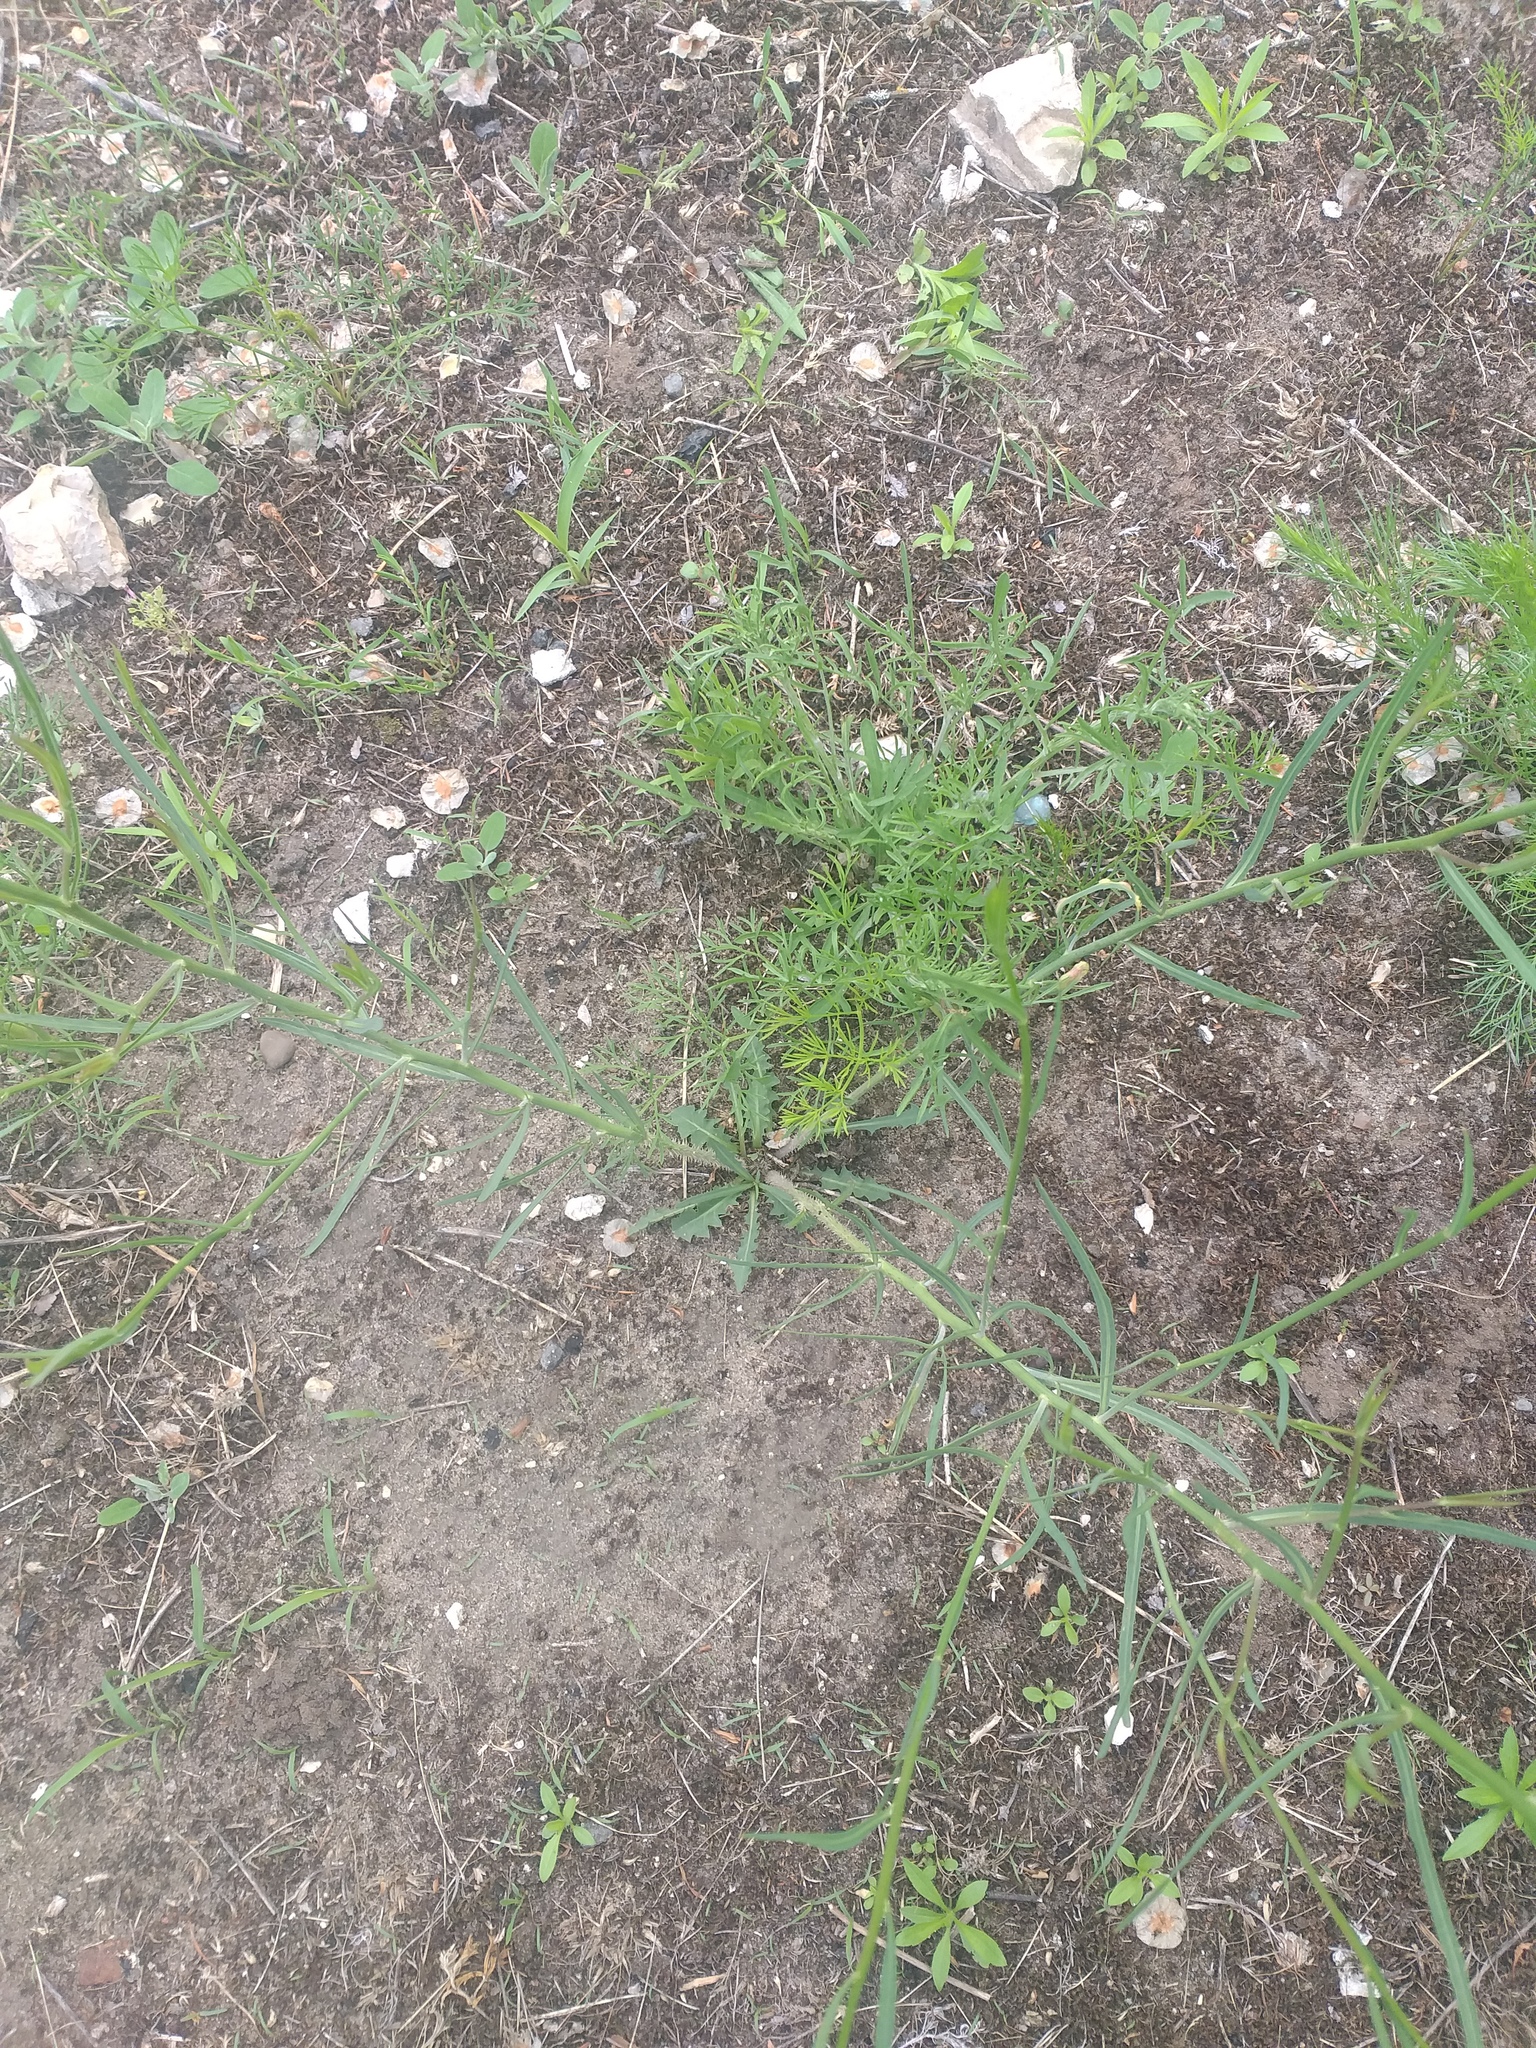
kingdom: Plantae
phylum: Tracheophyta
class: Magnoliopsida
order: Asterales
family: Asteraceae
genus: Chondrilla
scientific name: Chondrilla juncea
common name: Skeleton weed
